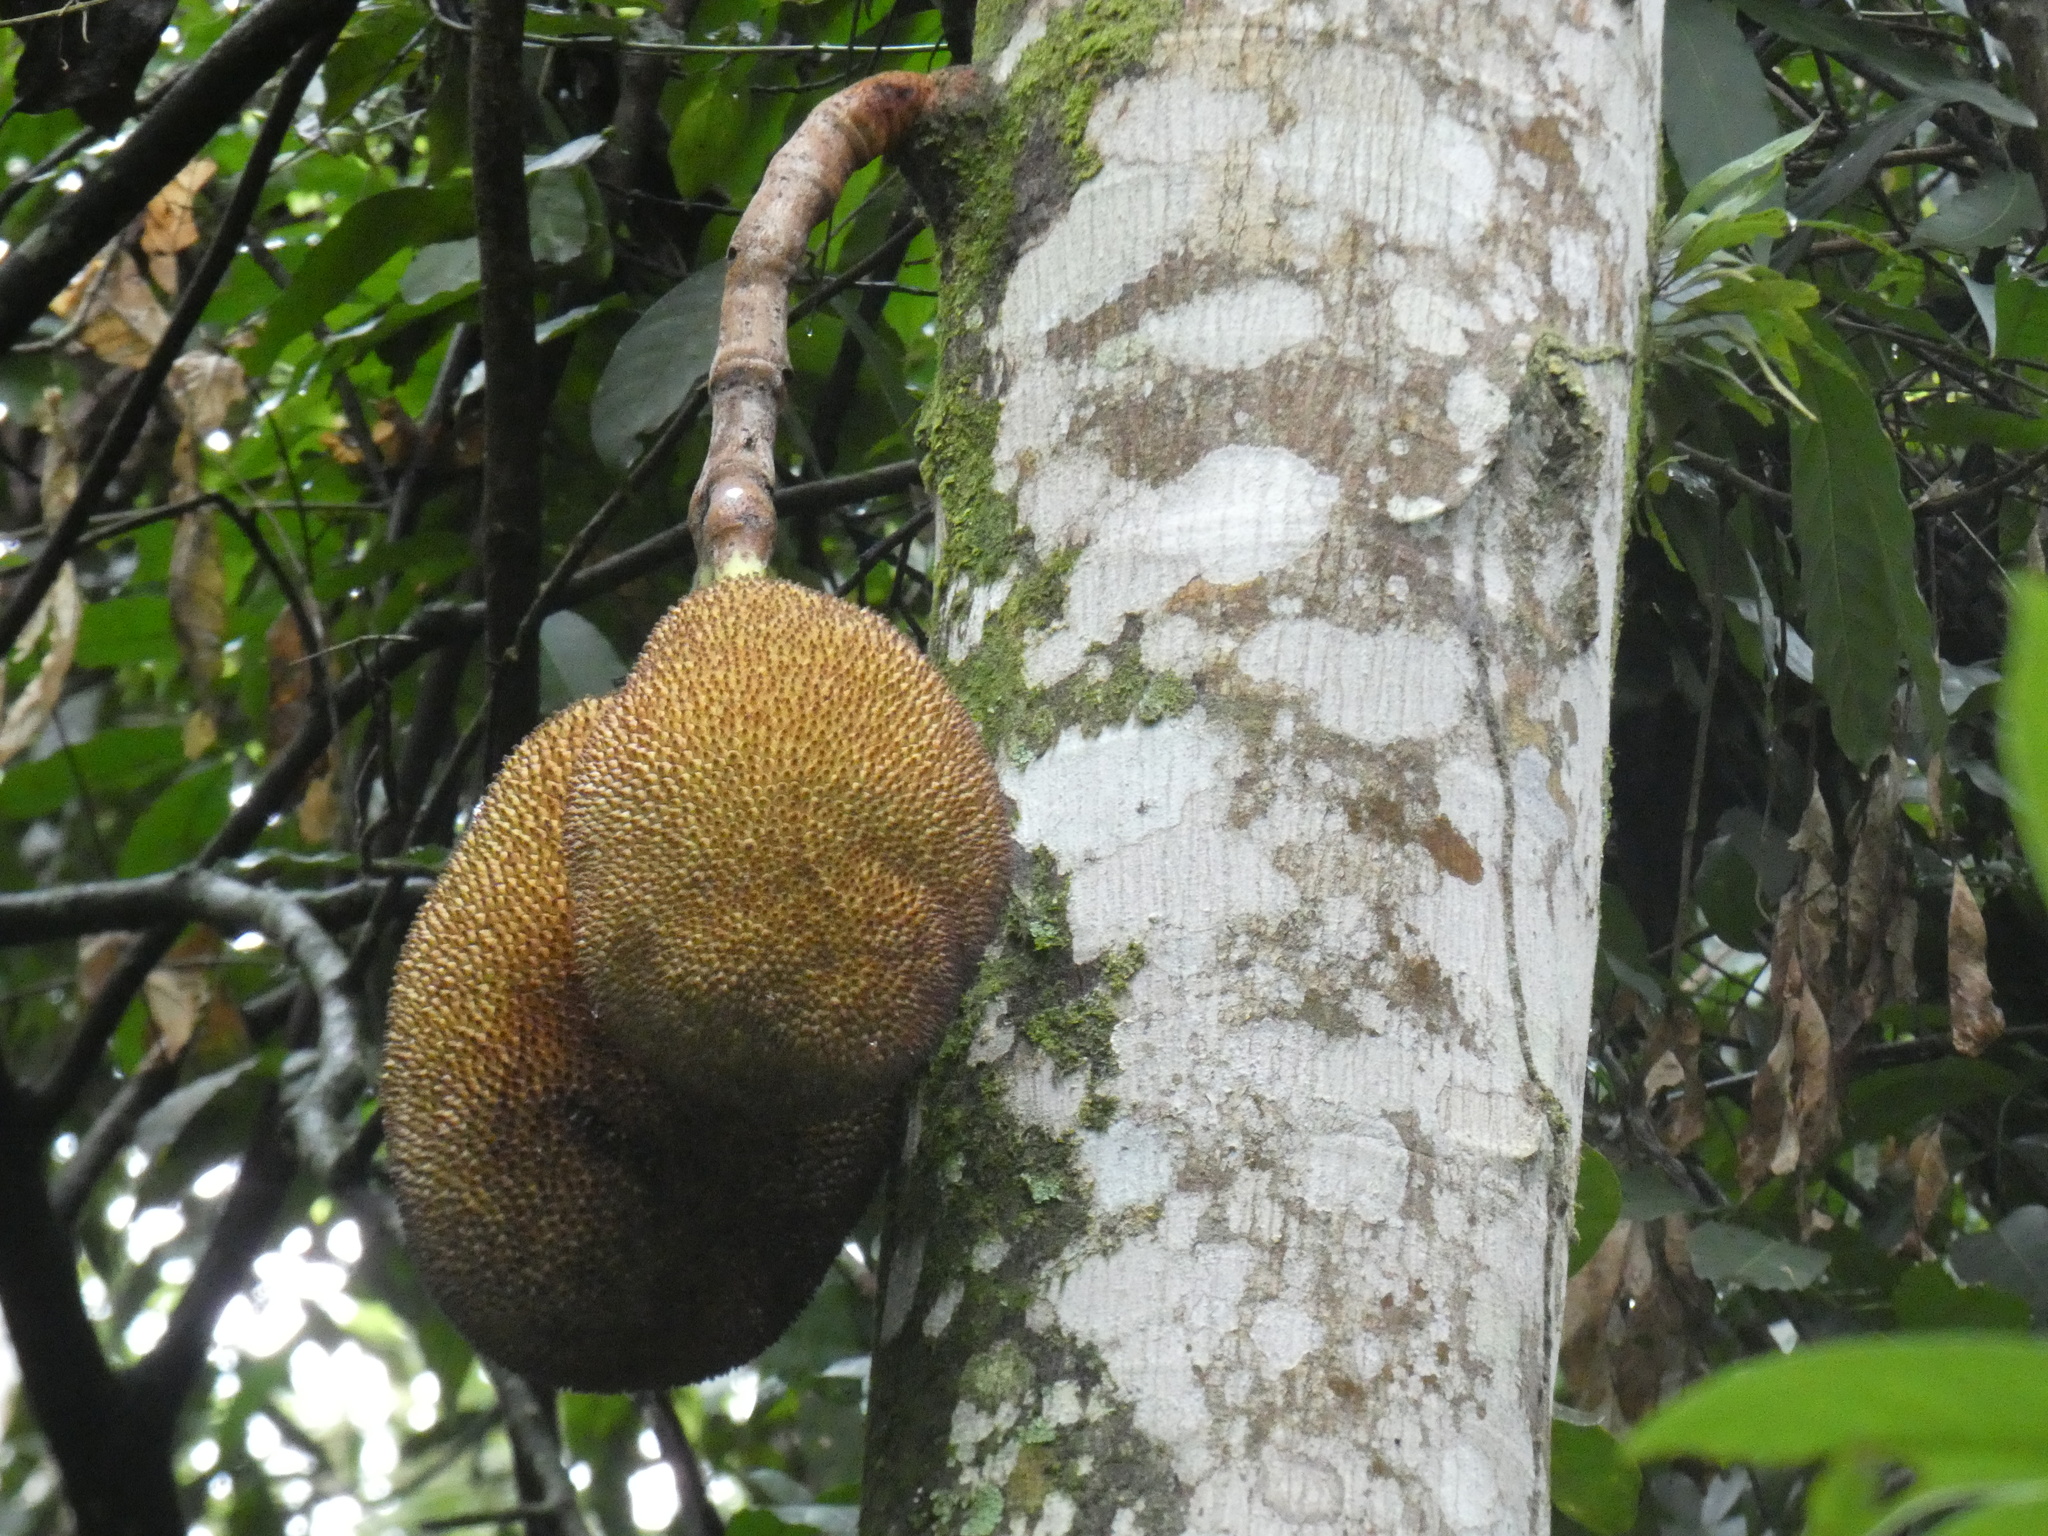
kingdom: Plantae
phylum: Tracheophyta
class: Magnoliopsida
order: Rosales
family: Moraceae
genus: Artocarpus
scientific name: Artocarpus heterophyllus
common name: Jackfruit
